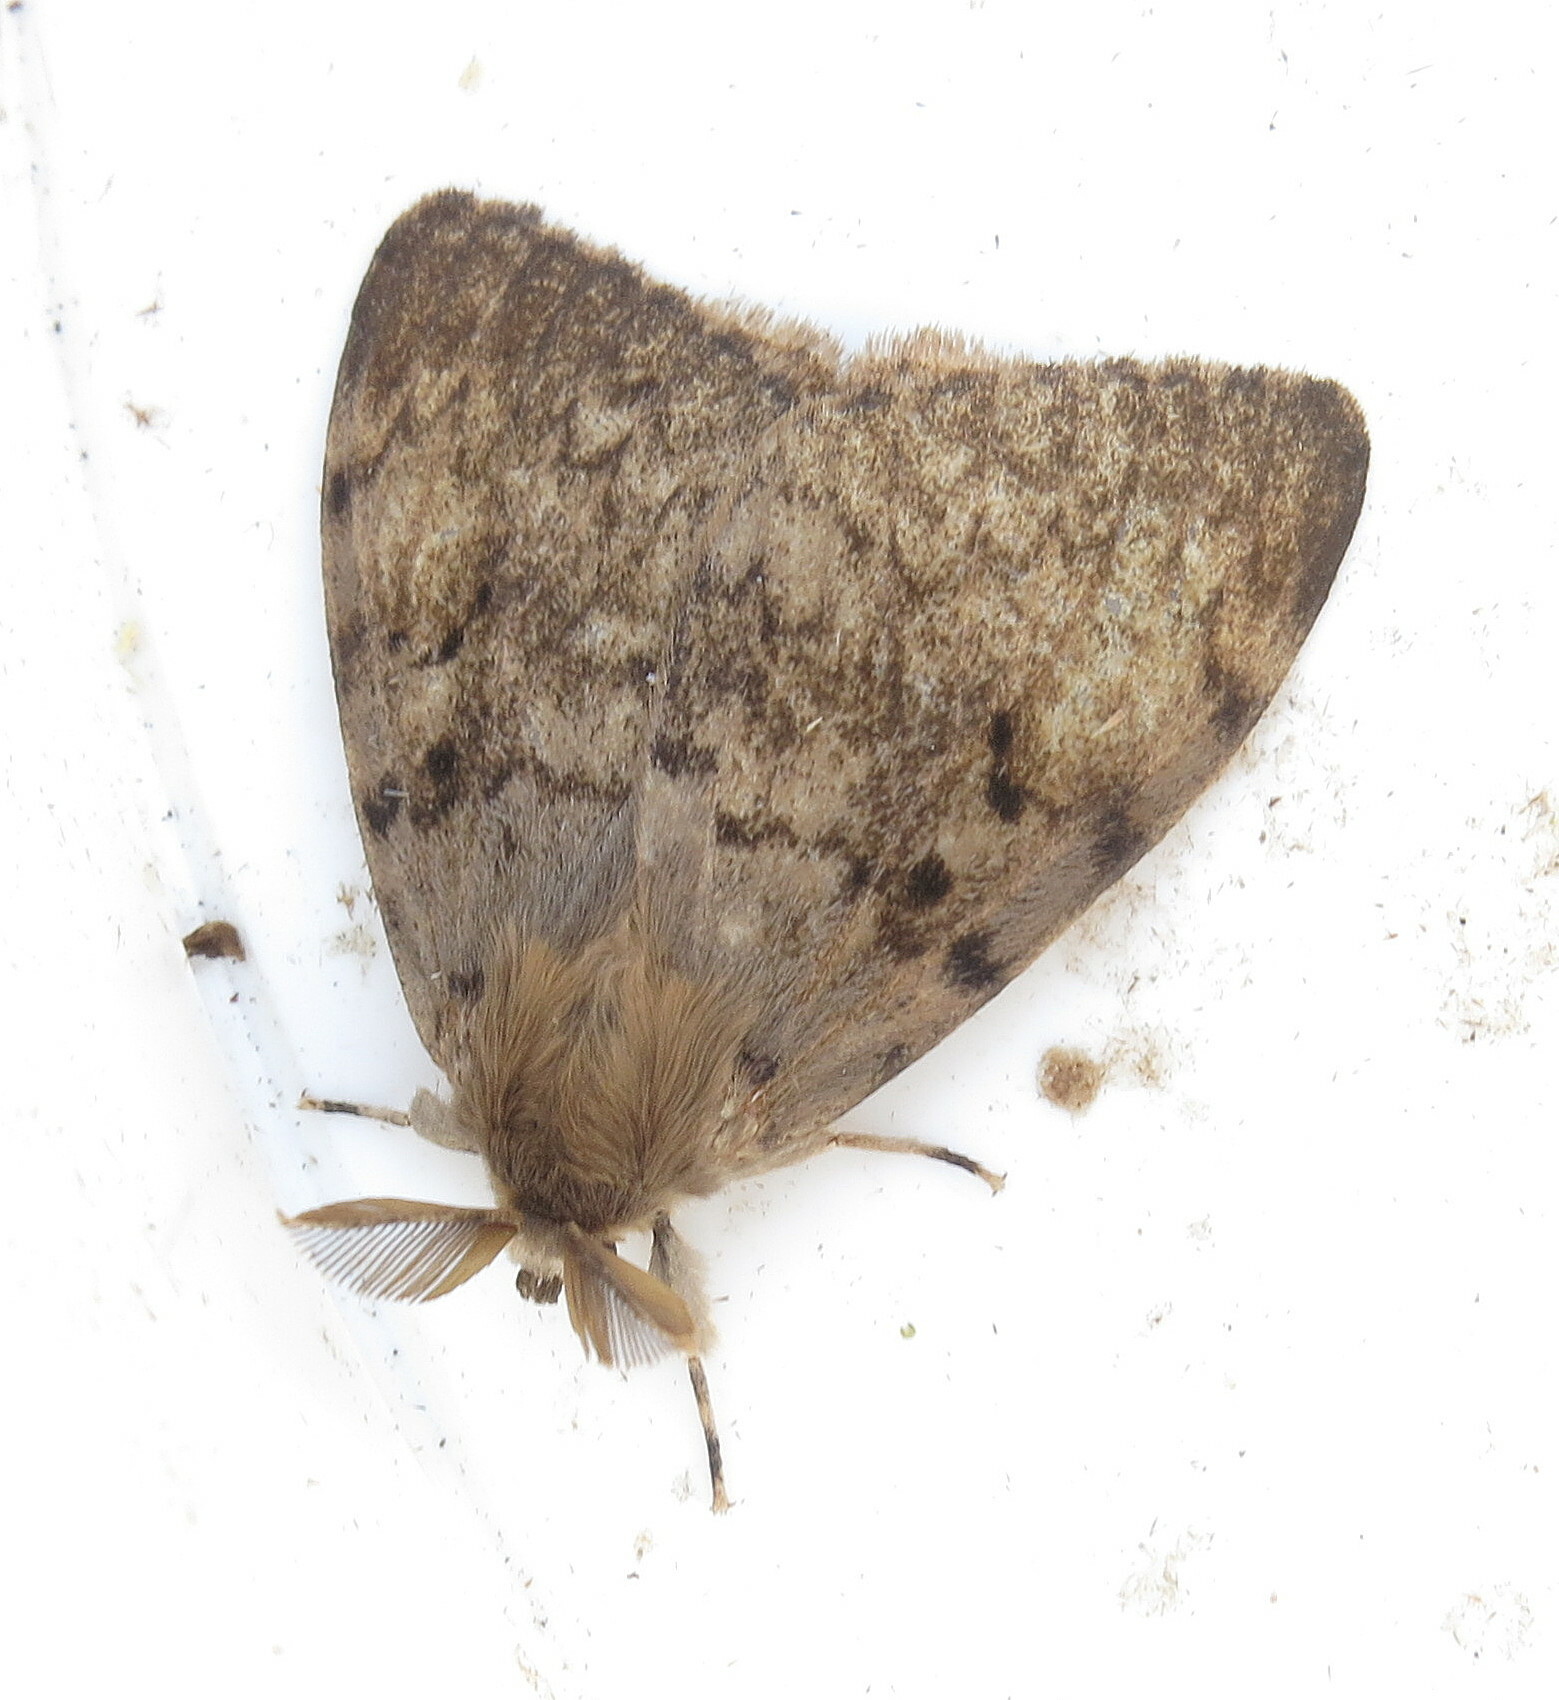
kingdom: Animalia
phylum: Arthropoda
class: Insecta
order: Lepidoptera
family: Erebidae
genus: Lymantria
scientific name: Lymantria dispar
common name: Gypsy moth
